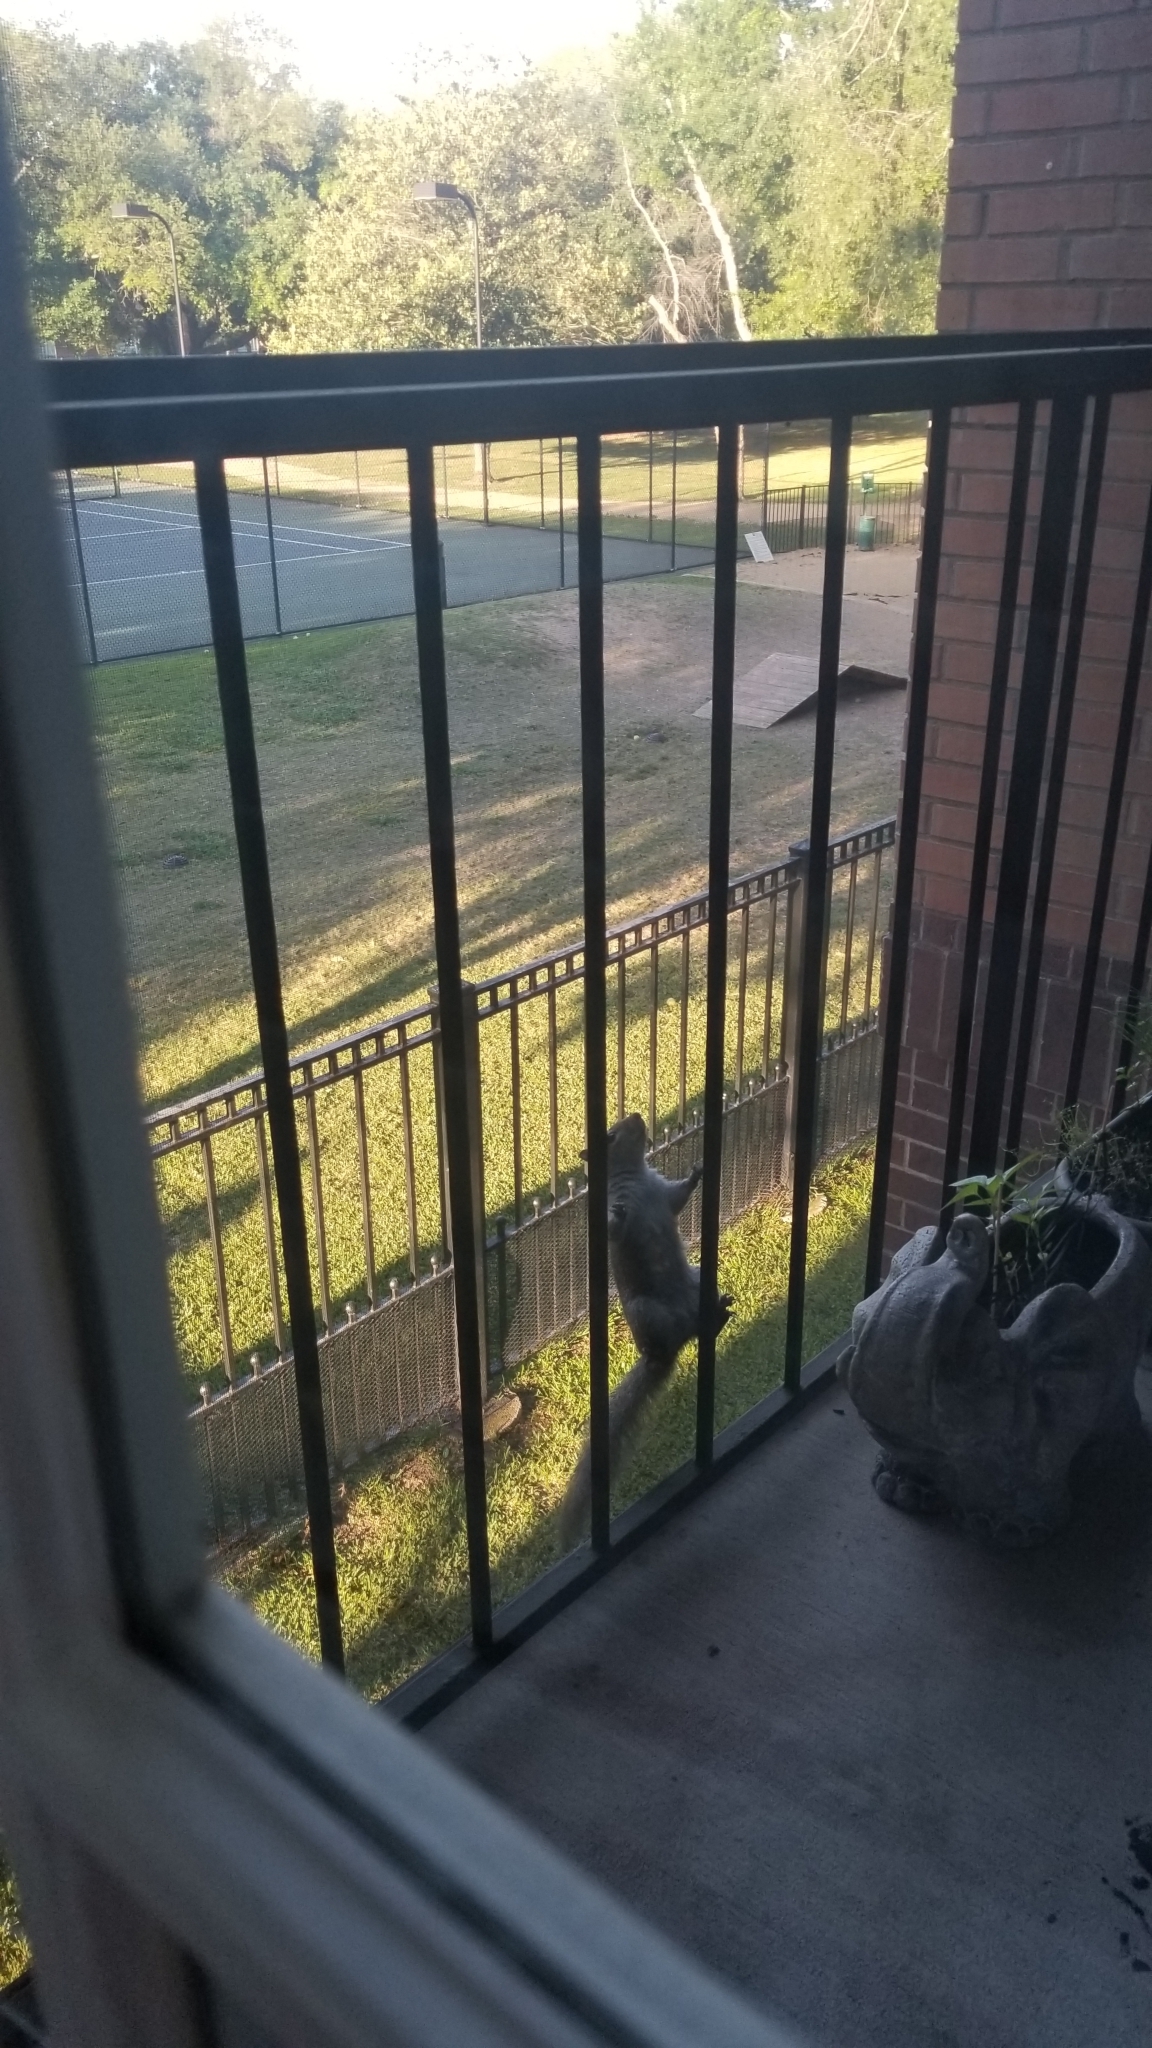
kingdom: Animalia
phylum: Chordata
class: Mammalia
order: Rodentia
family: Sciuridae
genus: Sciurus
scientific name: Sciurus carolinensis
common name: Eastern gray squirrel
